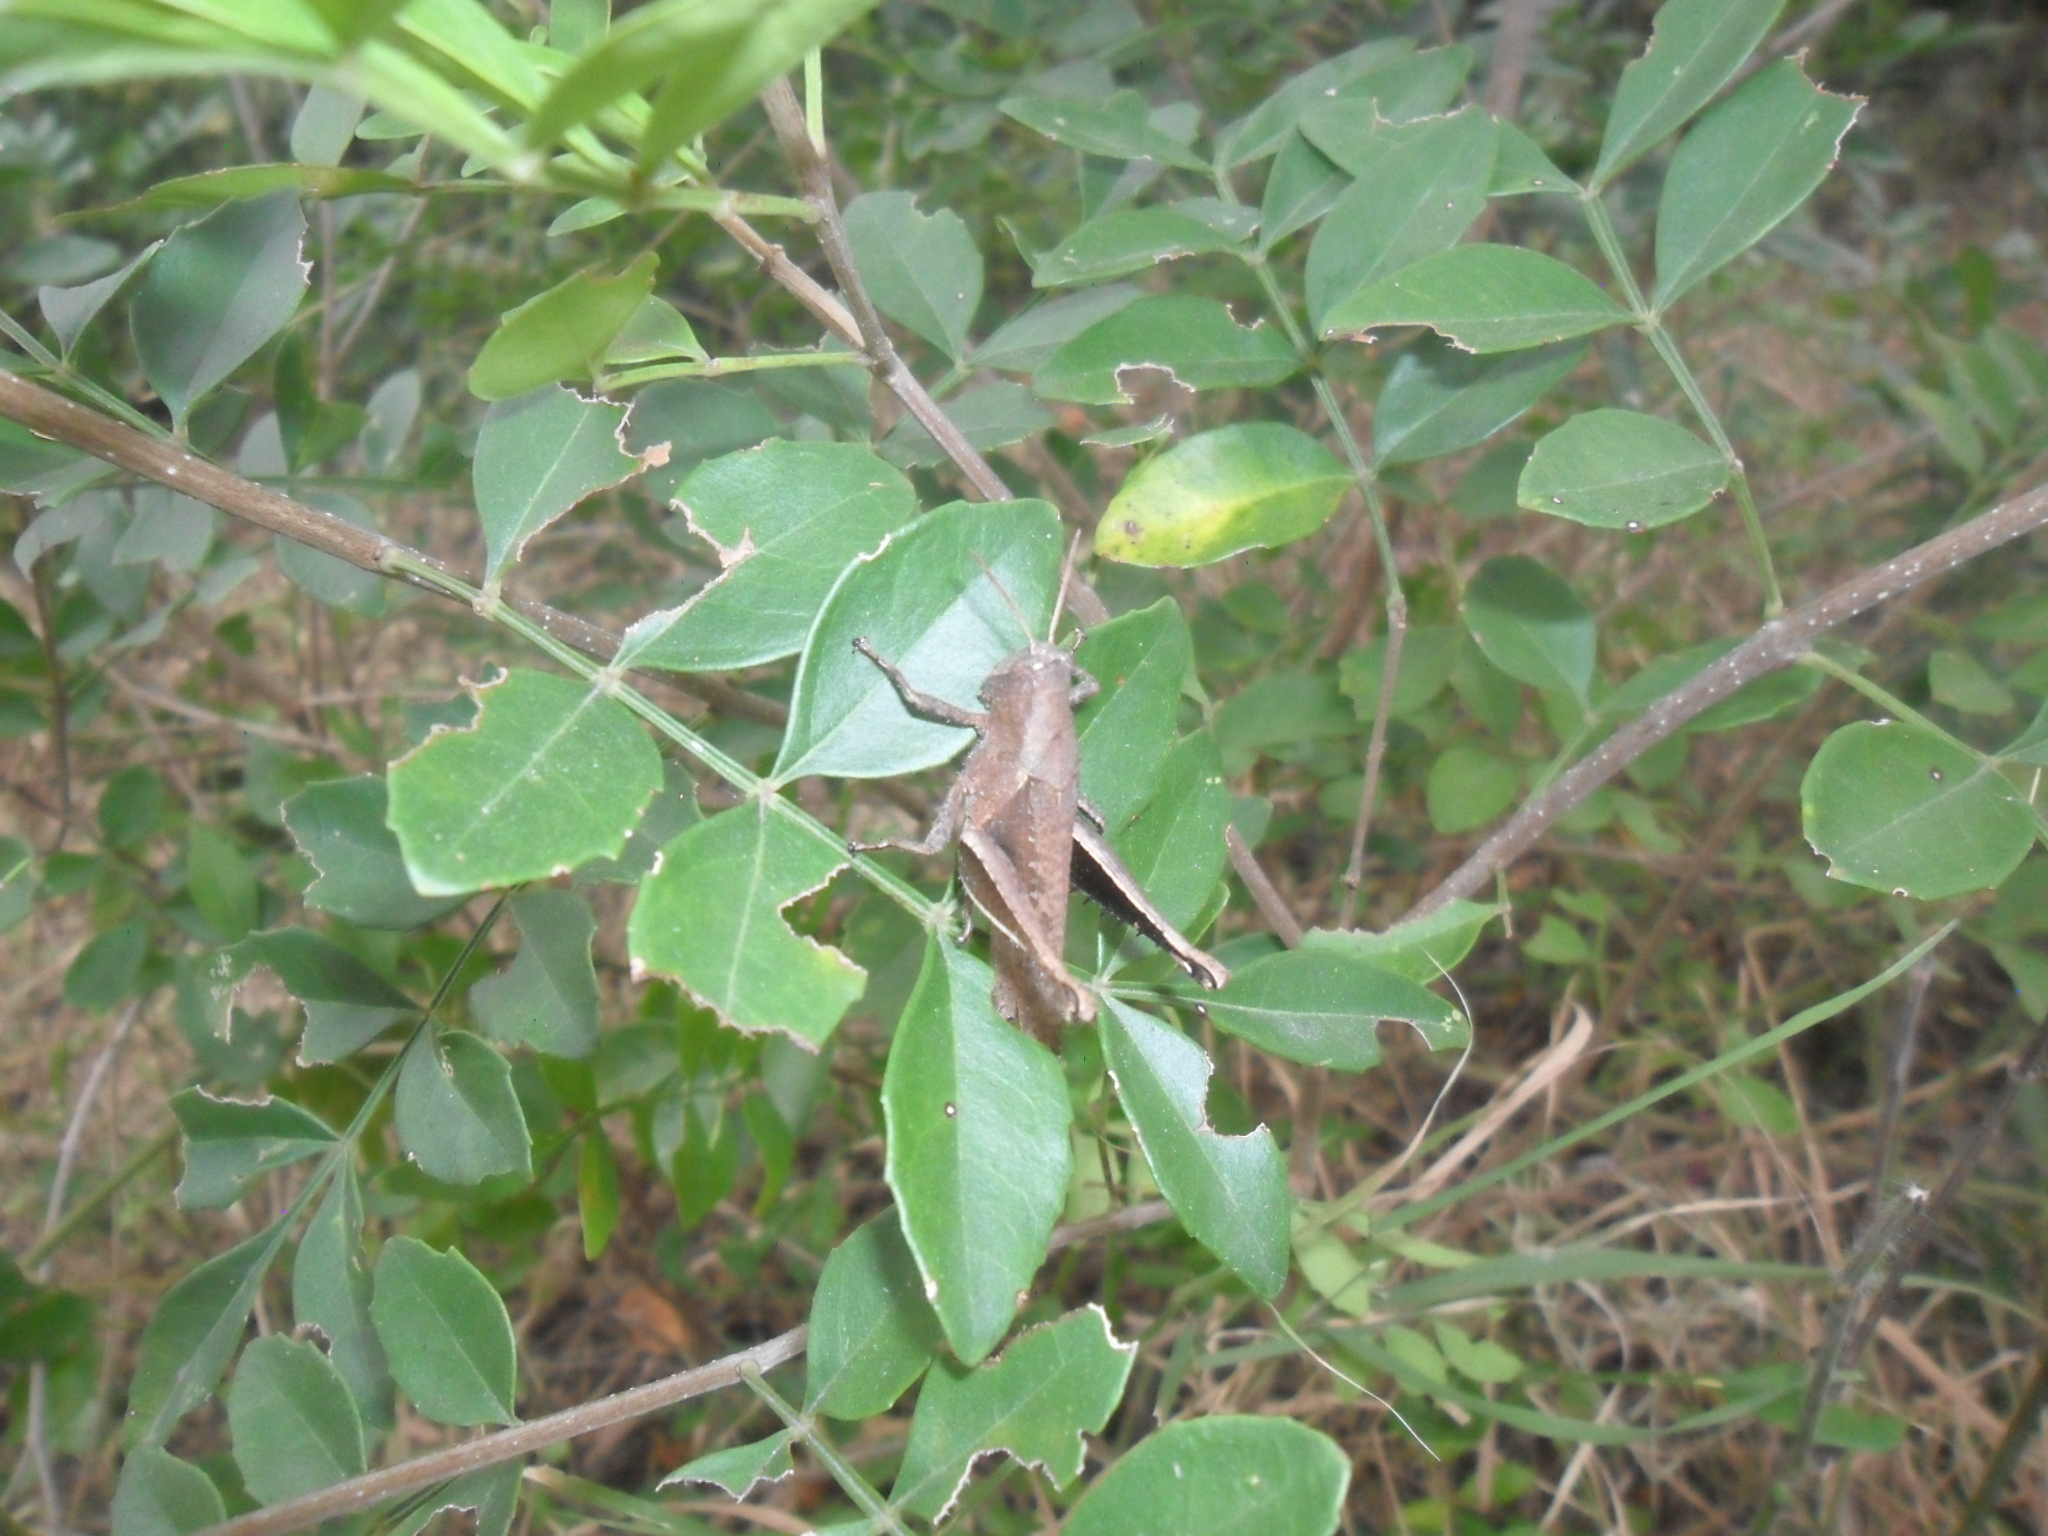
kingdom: Animalia
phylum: Arthropoda
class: Insecta
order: Orthoptera
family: Acrididae
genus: Abracris
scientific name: Abracris flavolineata
